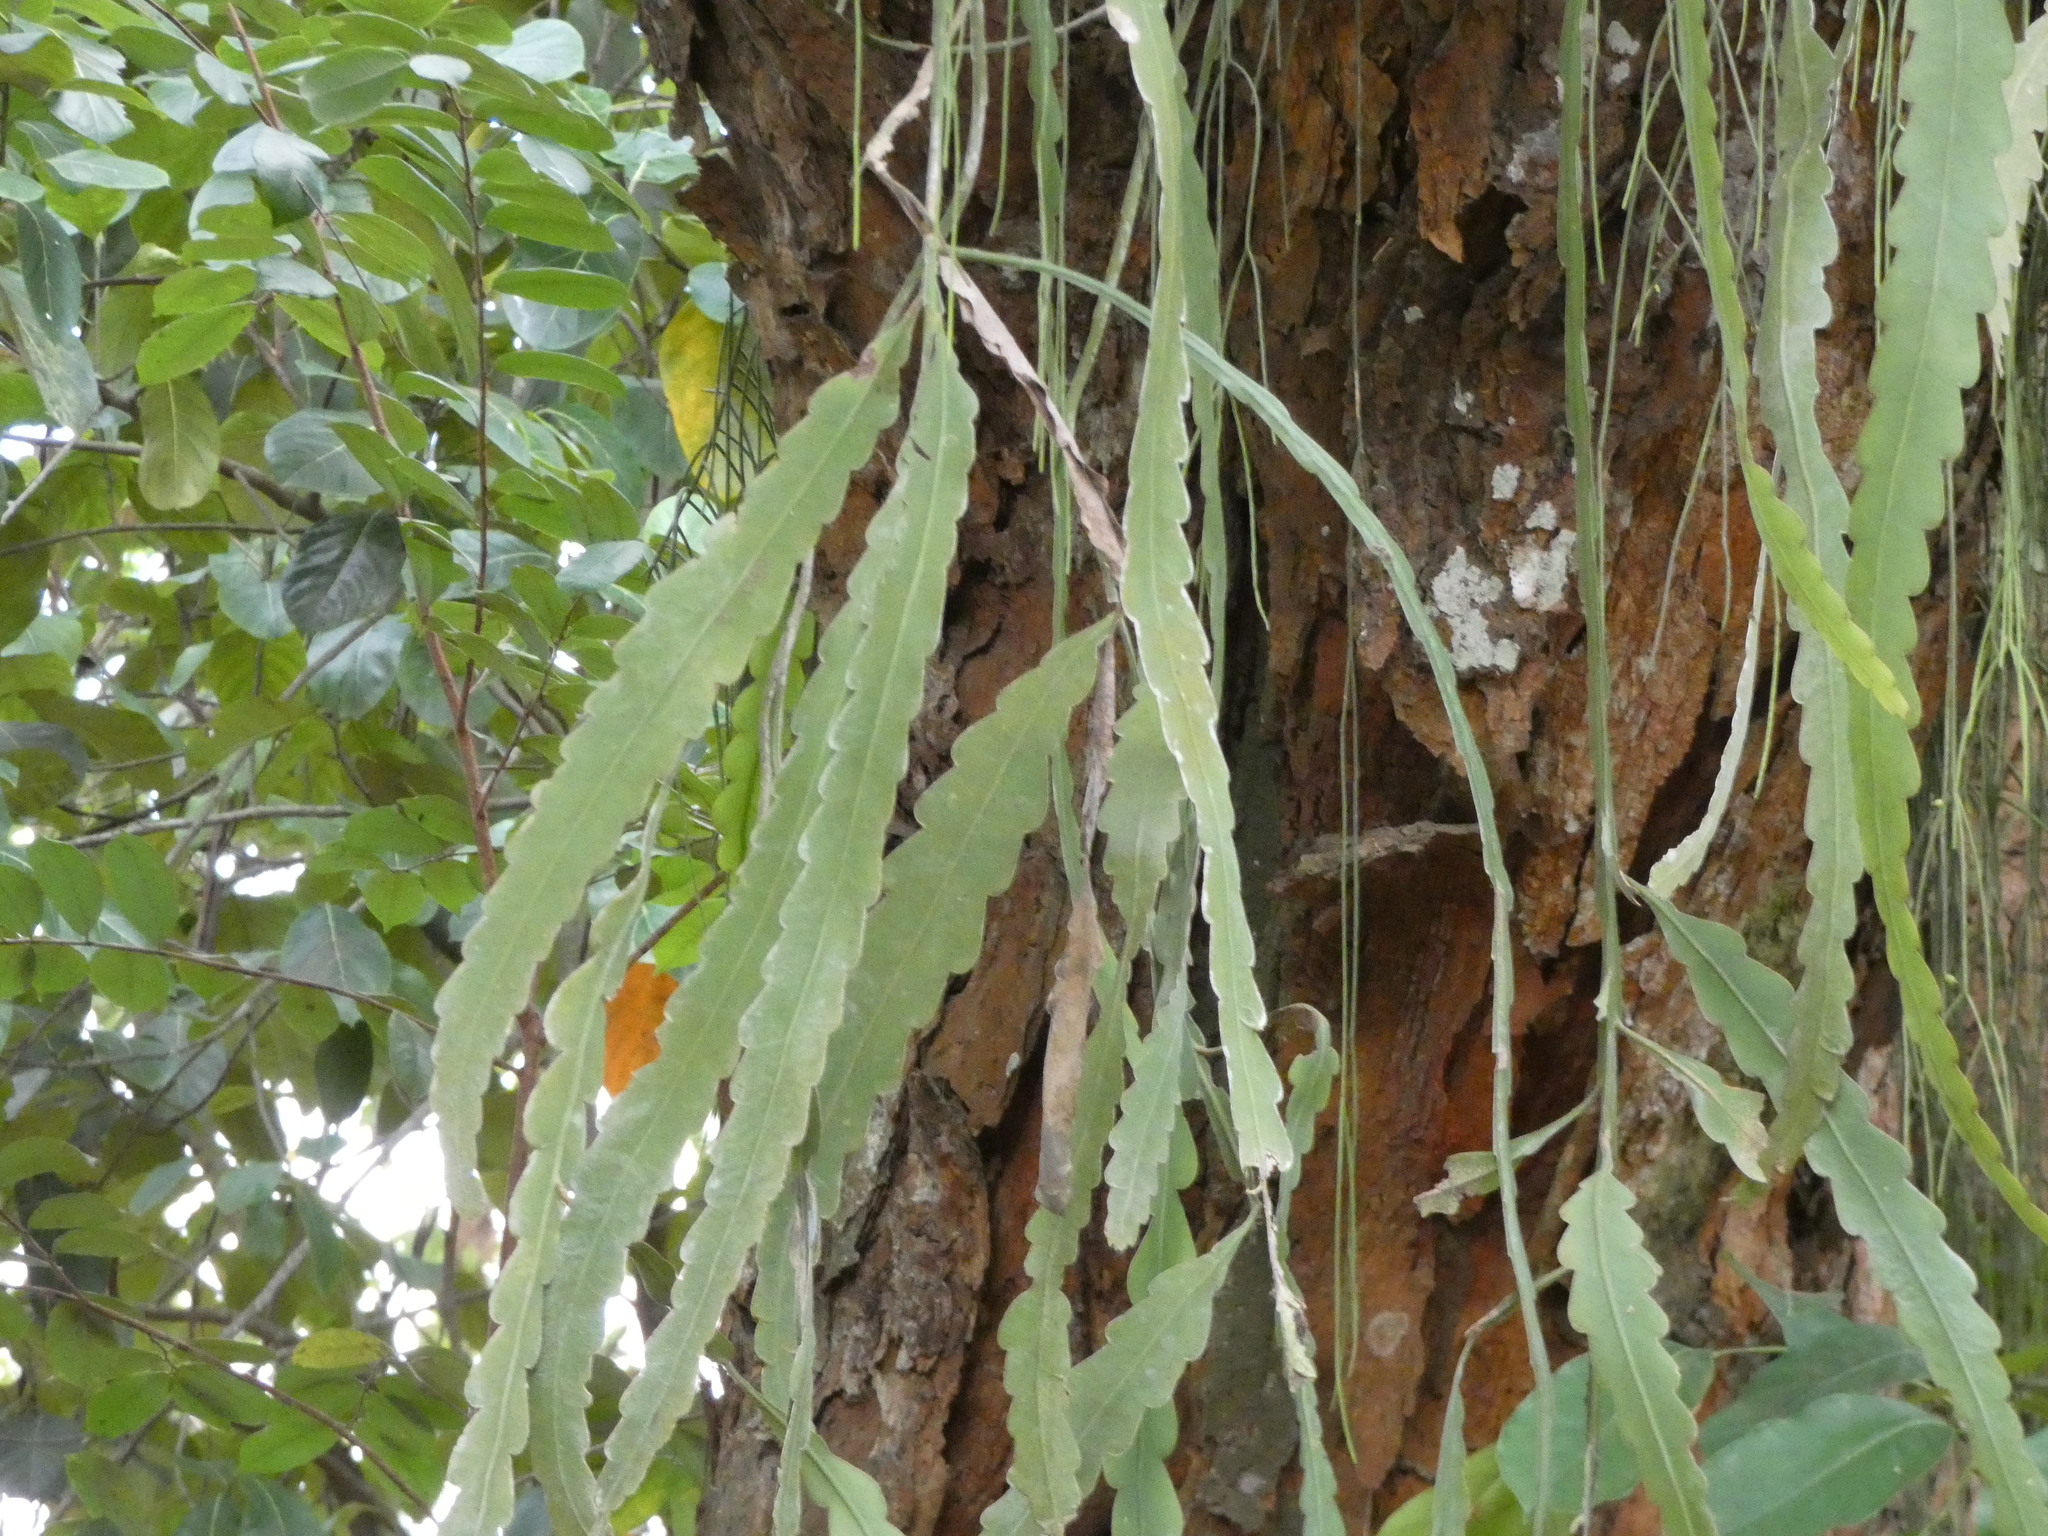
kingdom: Plantae
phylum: Tracheophyta
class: Magnoliopsida
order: Caryophyllales
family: Cactaceae
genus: Epiphyllum
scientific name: Epiphyllum phyllanthus
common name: Climbing cactus
